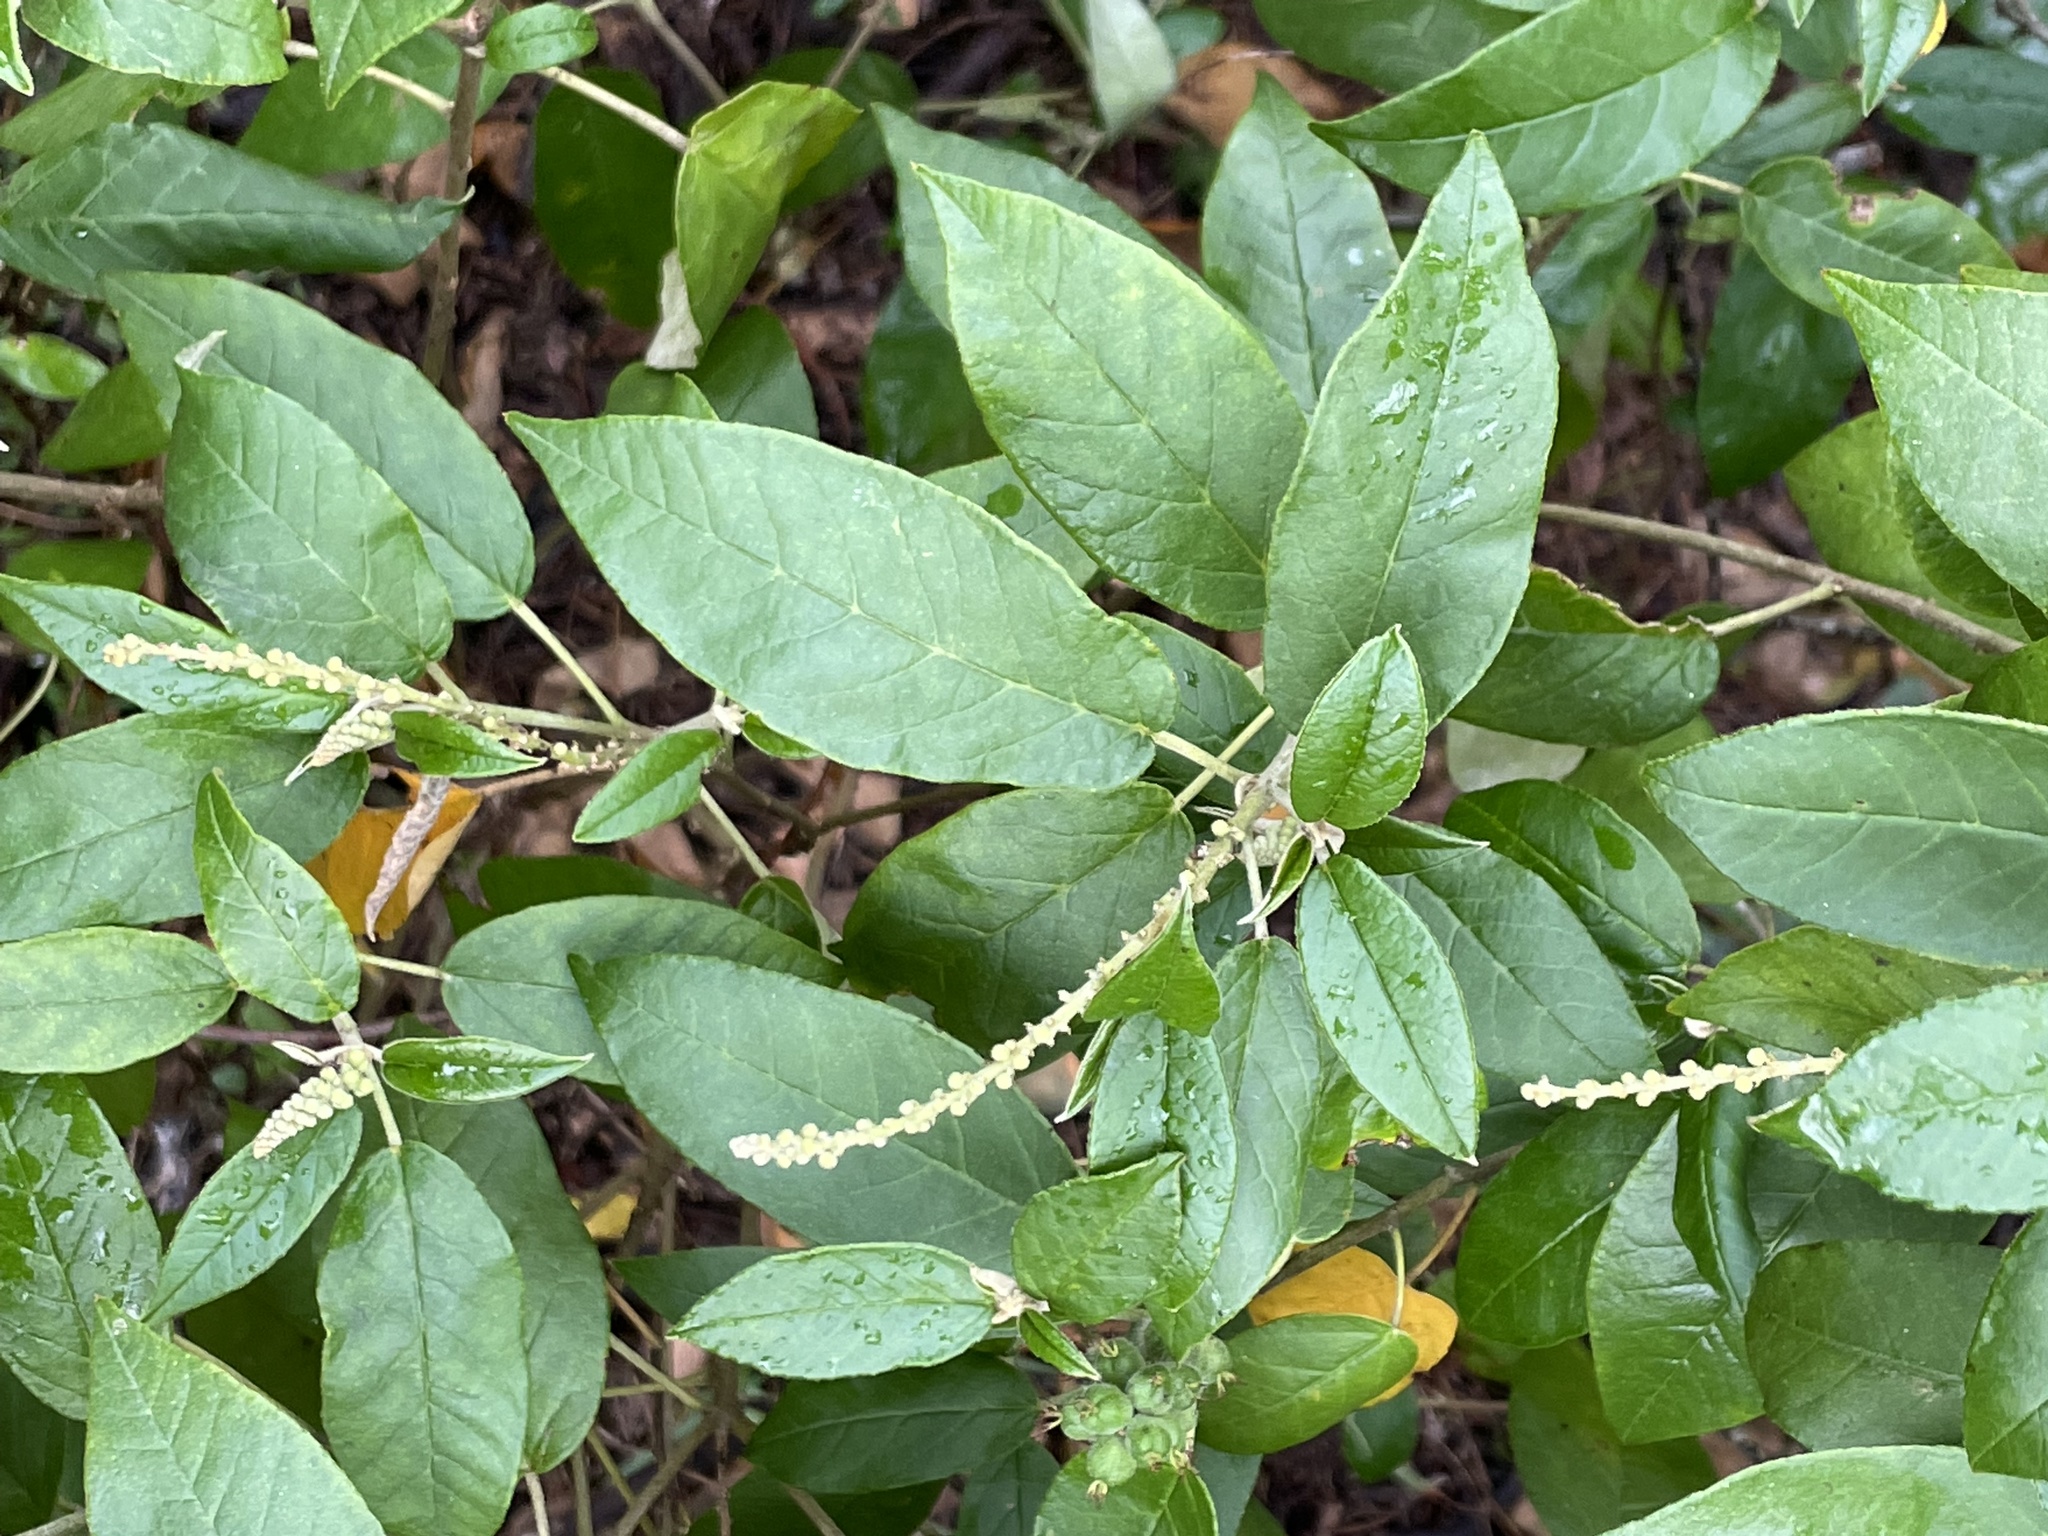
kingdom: Plantae
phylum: Tracheophyta
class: Magnoliopsida
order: Malpighiales
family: Euphorbiaceae
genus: Croton
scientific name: Croton cortesianus
